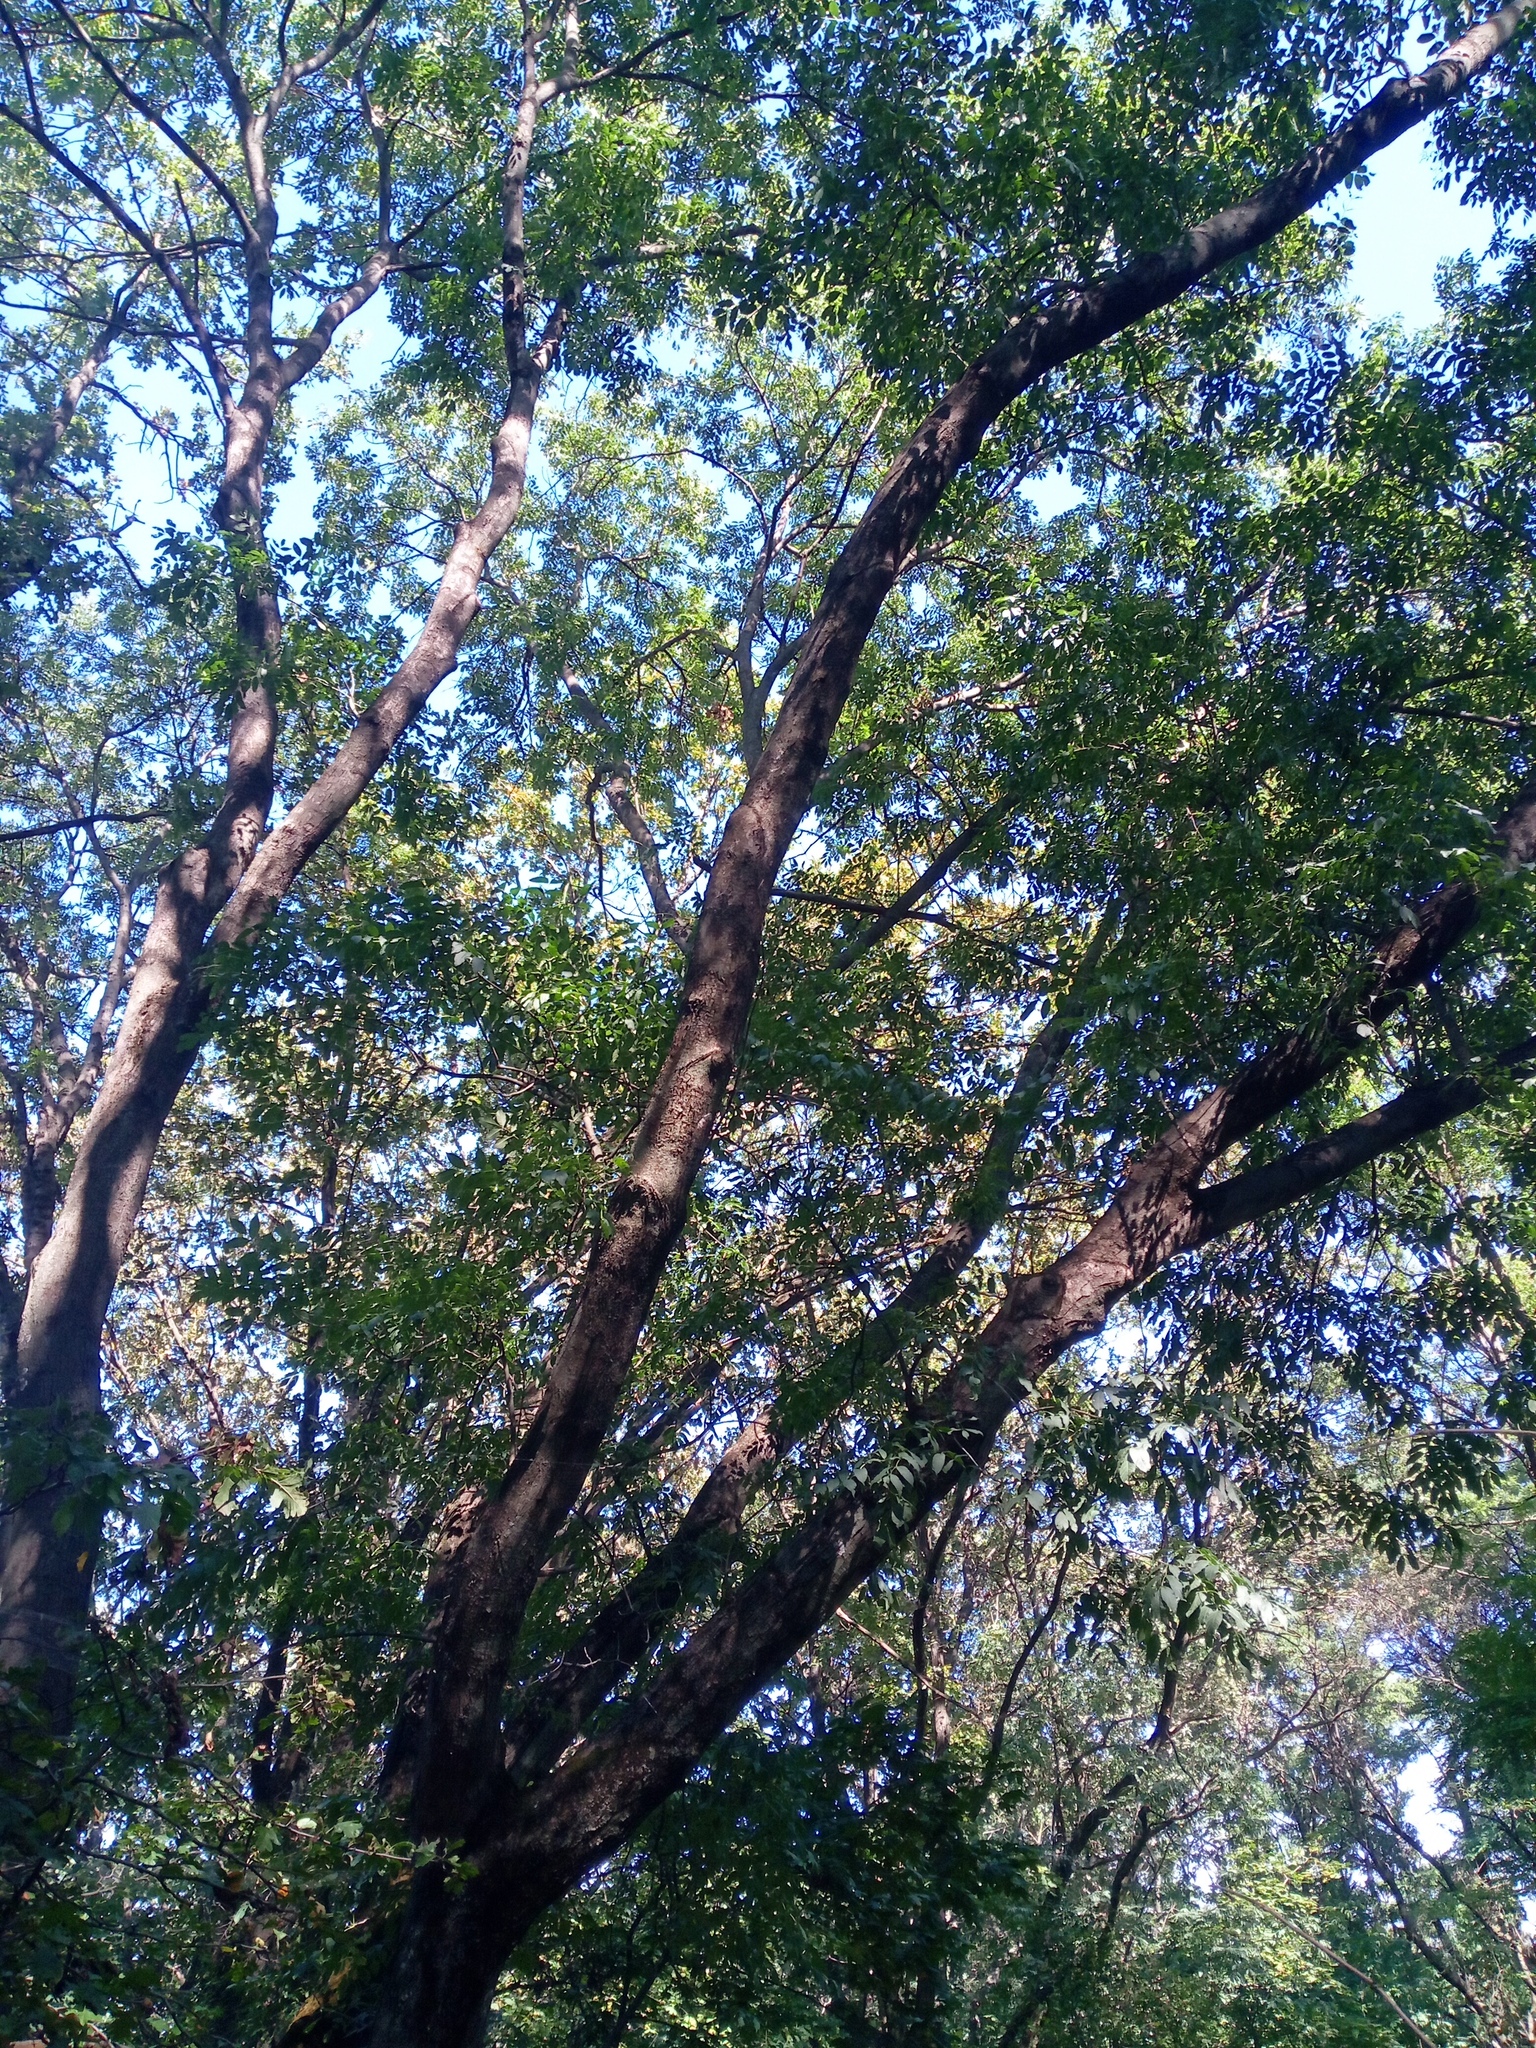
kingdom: Plantae
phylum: Tracheophyta
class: Magnoliopsida
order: Lamiales
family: Oleaceae
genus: Fraxinus
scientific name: Fraxinus excelsior
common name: European ash
